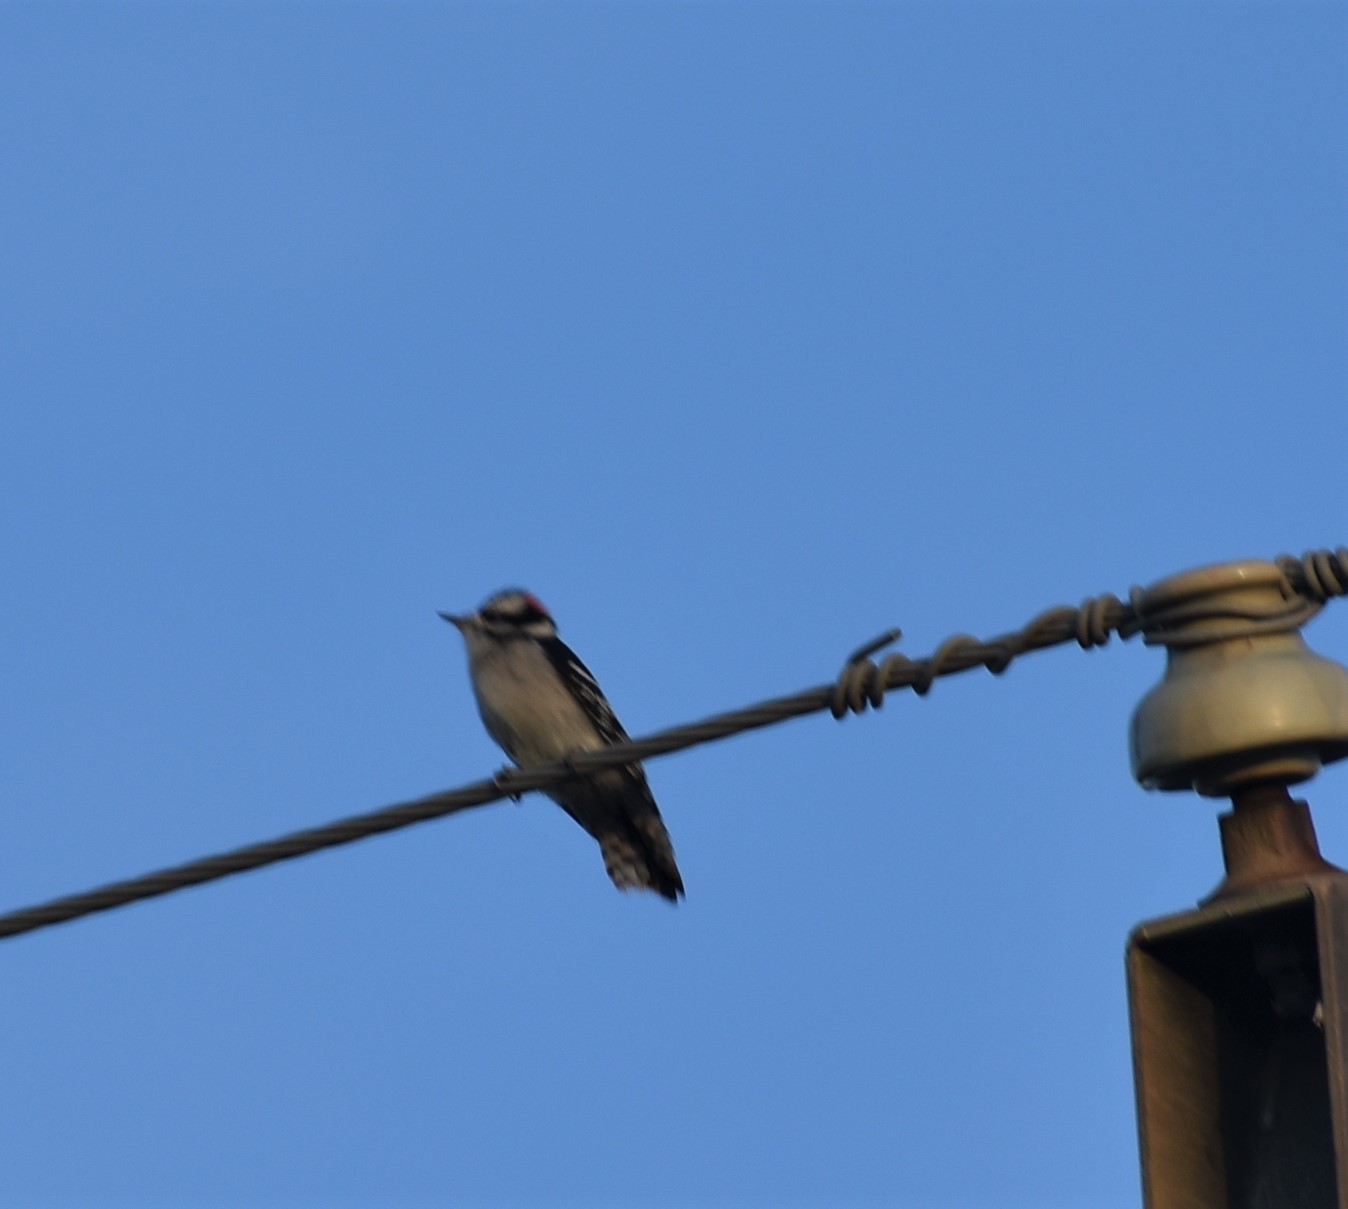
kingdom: Animalia
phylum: Chordata
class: Aves
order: Piciformes
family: Picidae
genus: Dryobates
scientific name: Dryobates pubescens
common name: Downy woodpecker
